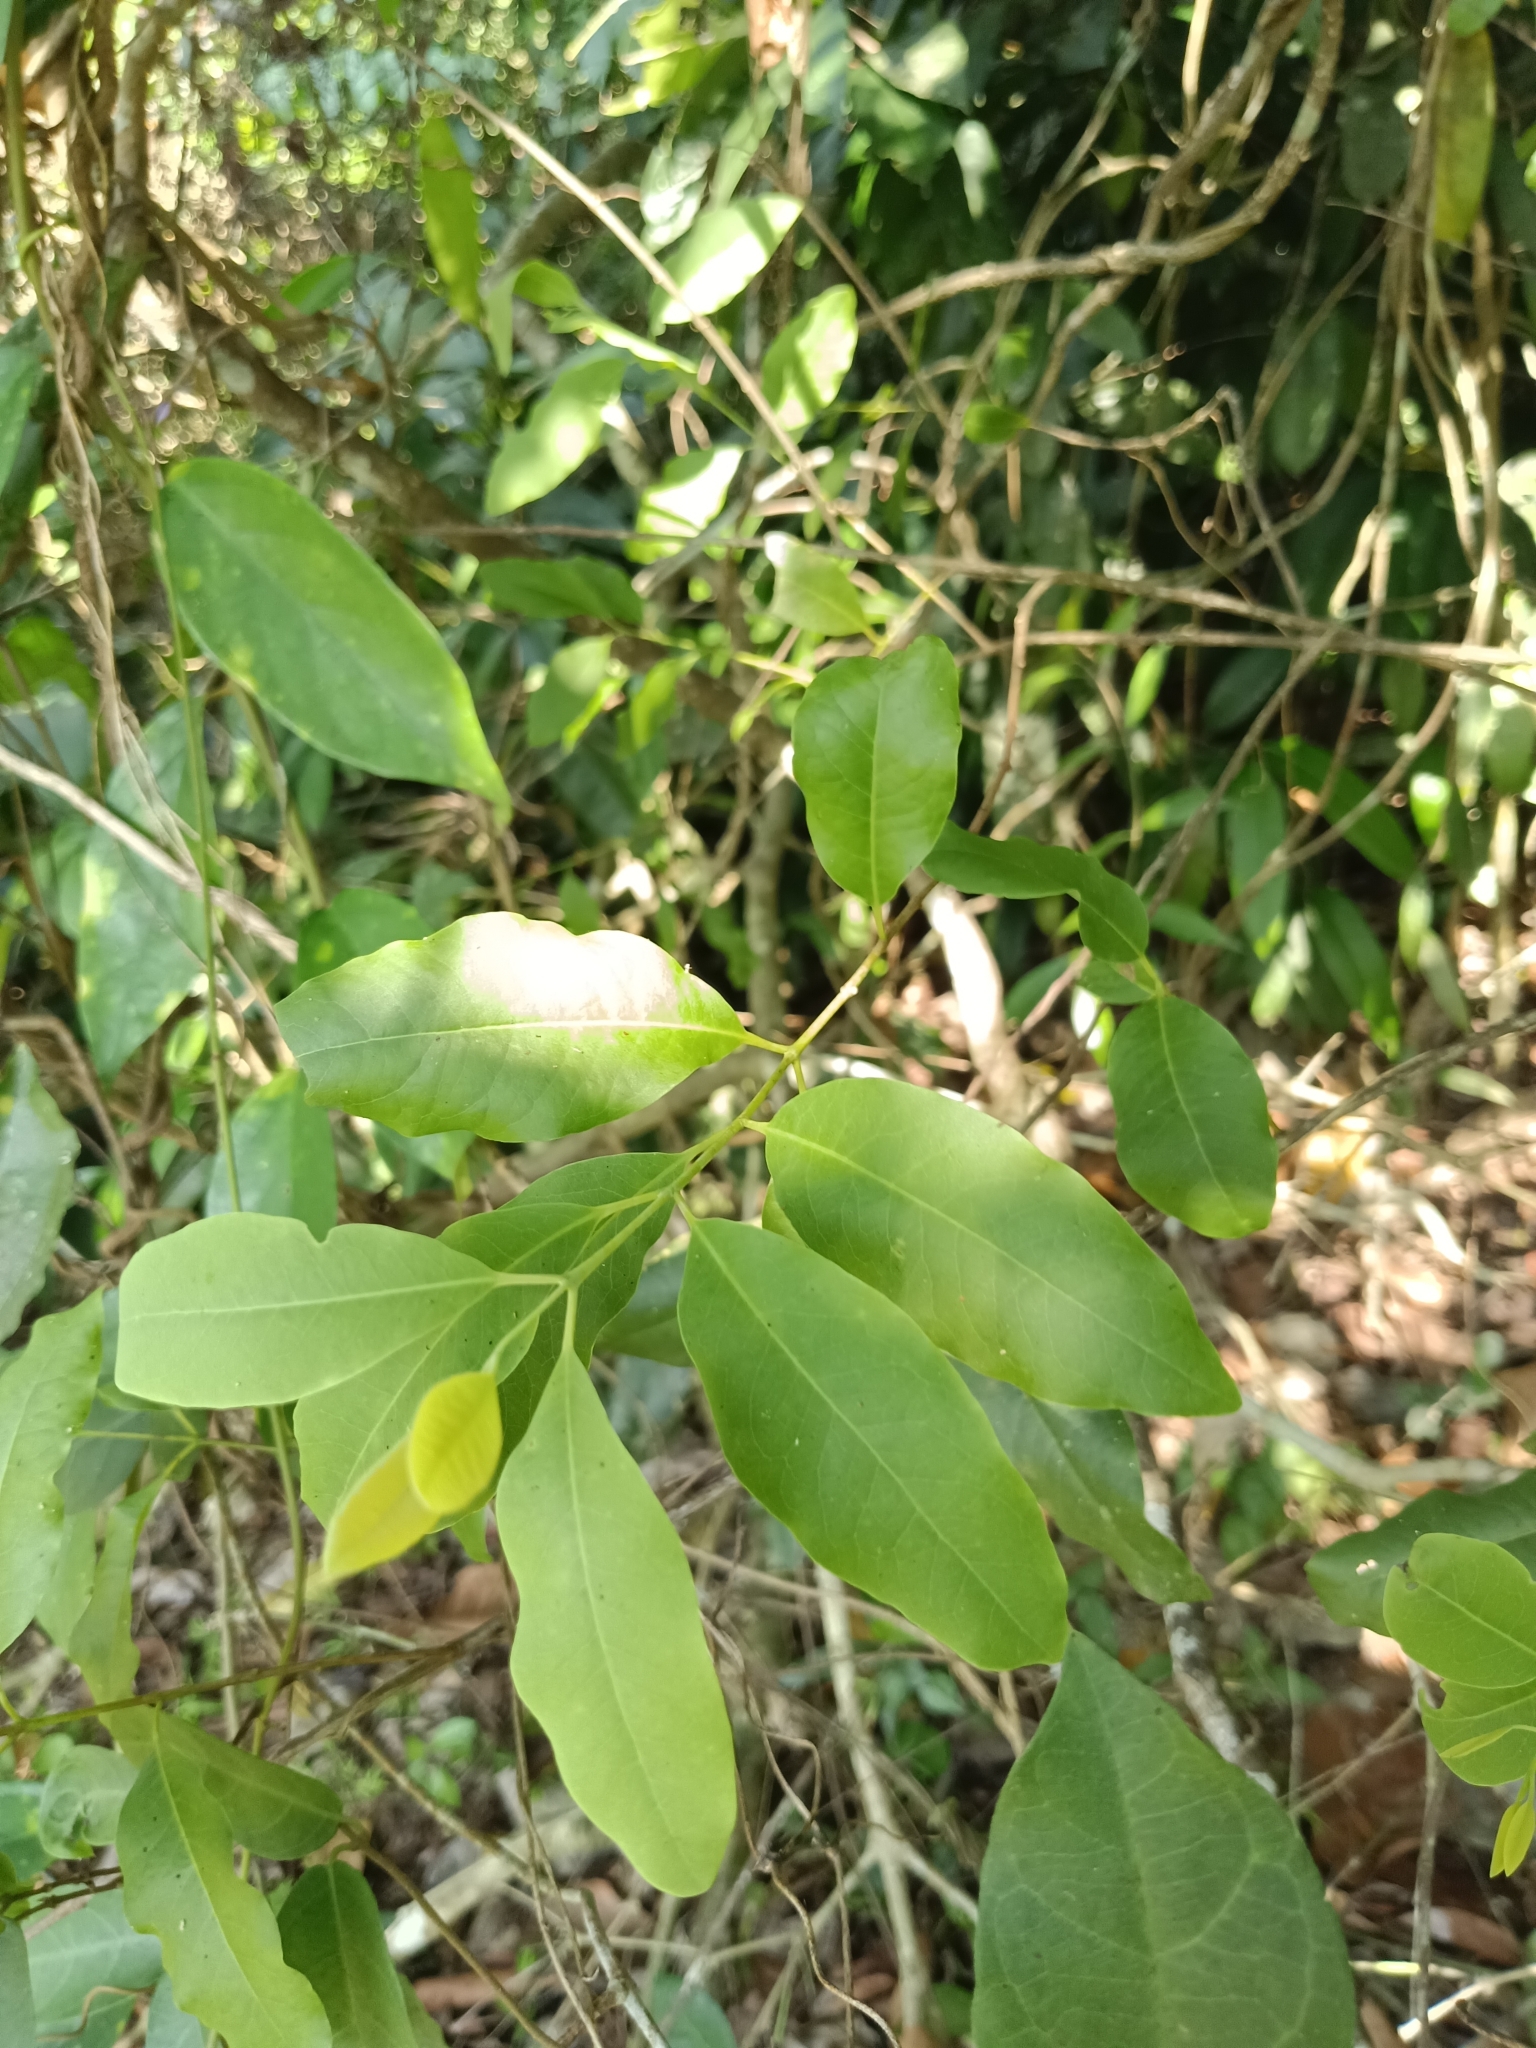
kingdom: Plantae
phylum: Tracheophyta
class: Magnoliopsida
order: Santalales
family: Santalaceae
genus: Santalum
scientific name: Santalum album
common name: Indian sandalwood
